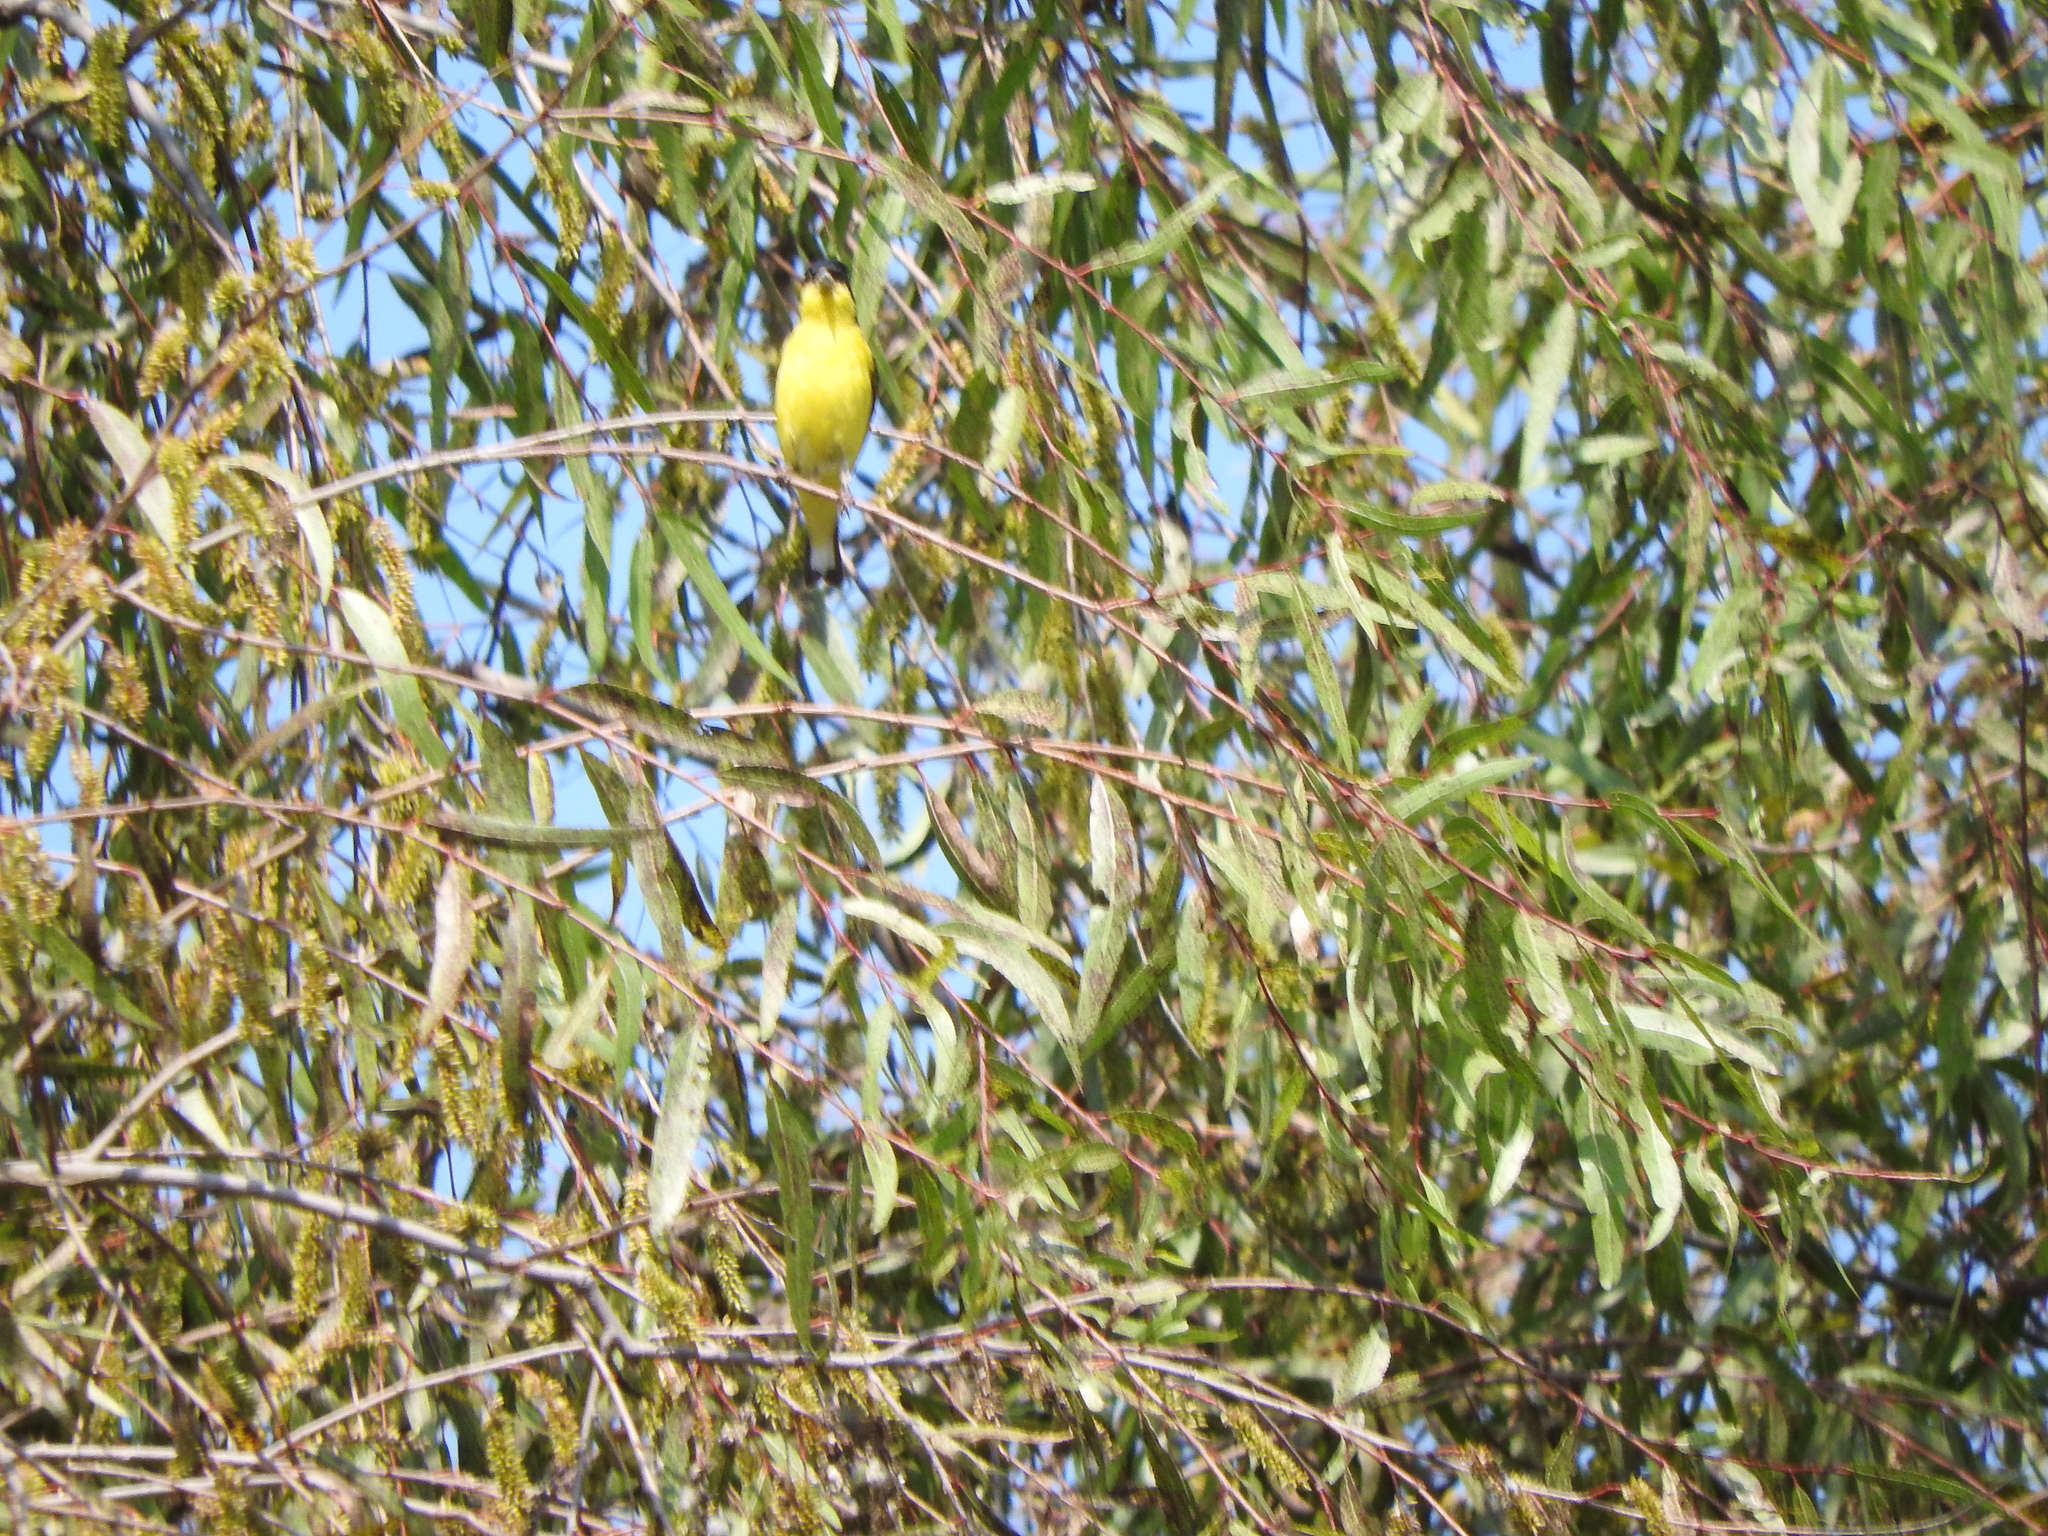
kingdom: Animalia
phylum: Chordata
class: Aves
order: Passeriformes
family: Fringillidae
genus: Spinus
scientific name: Spinus psaltria
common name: Lesser goldfinch
